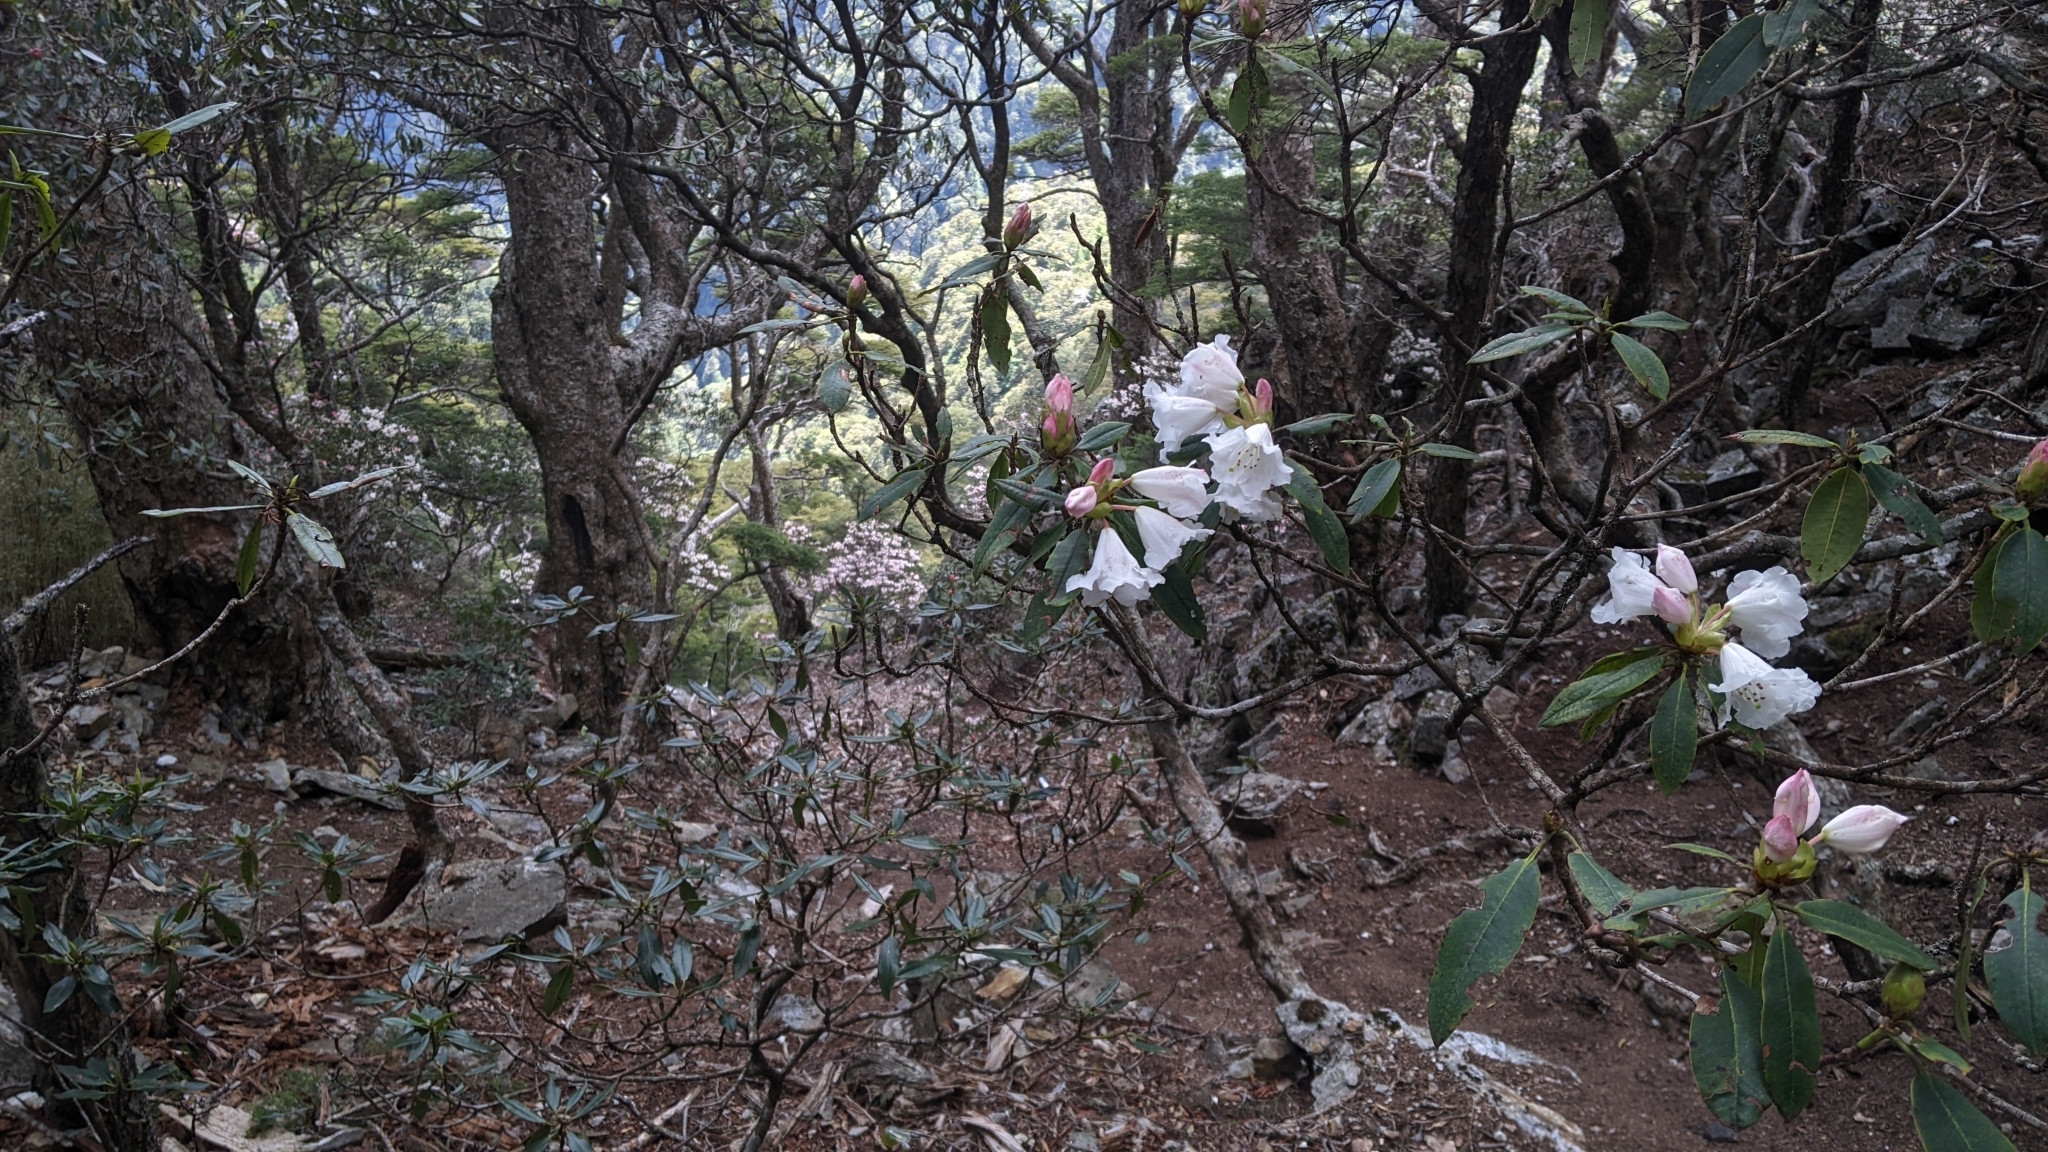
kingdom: Plantae
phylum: Tracheophyta
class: Magnoliopsida
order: Ericales
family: Ericaceae
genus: Rhododendron
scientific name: Rhododendron pseudochrysanthum
